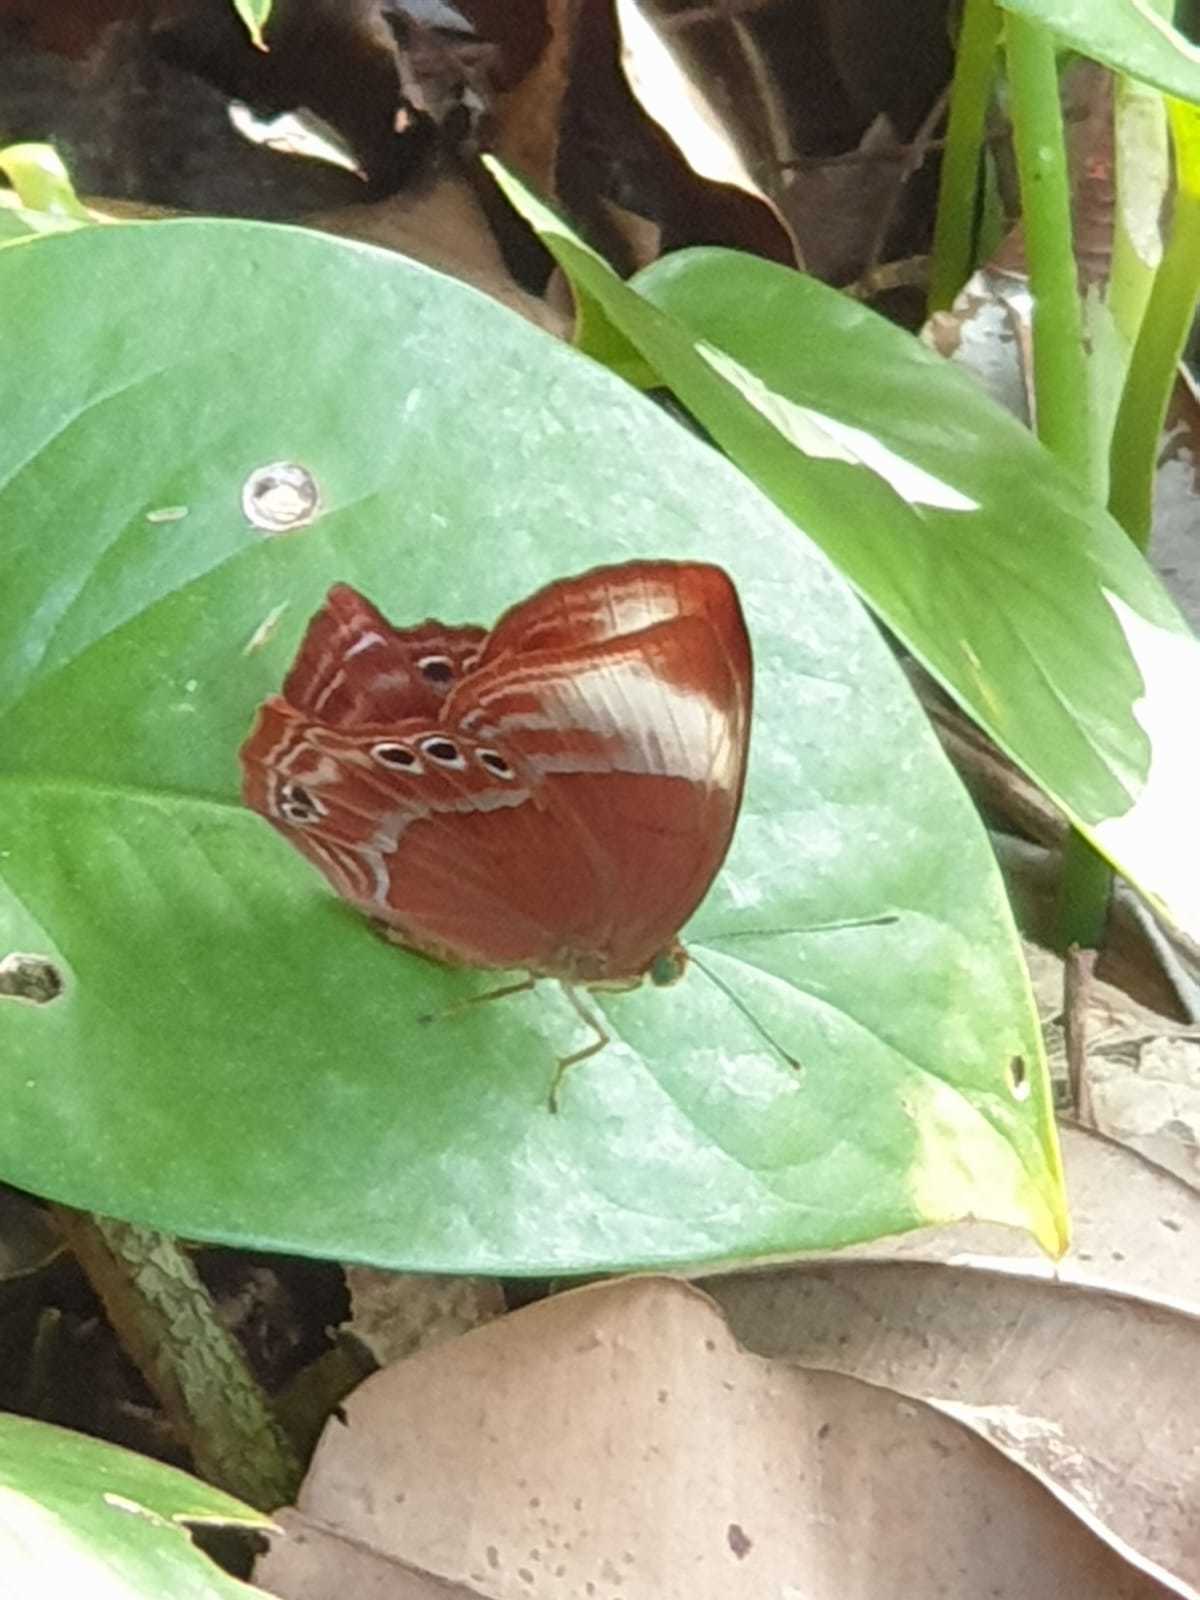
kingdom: Animalia
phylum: Arthropoda
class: Insecta
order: Lepidoptera
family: Lycaenidae
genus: Abisara
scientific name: Abisara saturata
